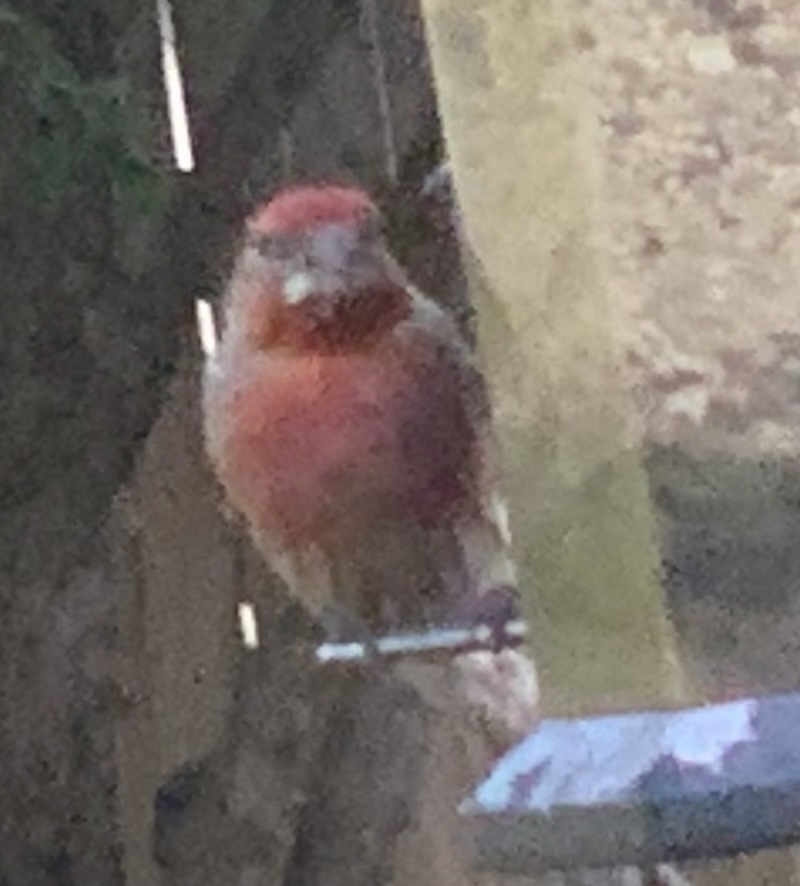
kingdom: Animalia
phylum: Chordata
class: Aves
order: Passeriformes
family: Fringillidae
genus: Haemorhous
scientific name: Haemorhous mexicanus
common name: House finch
